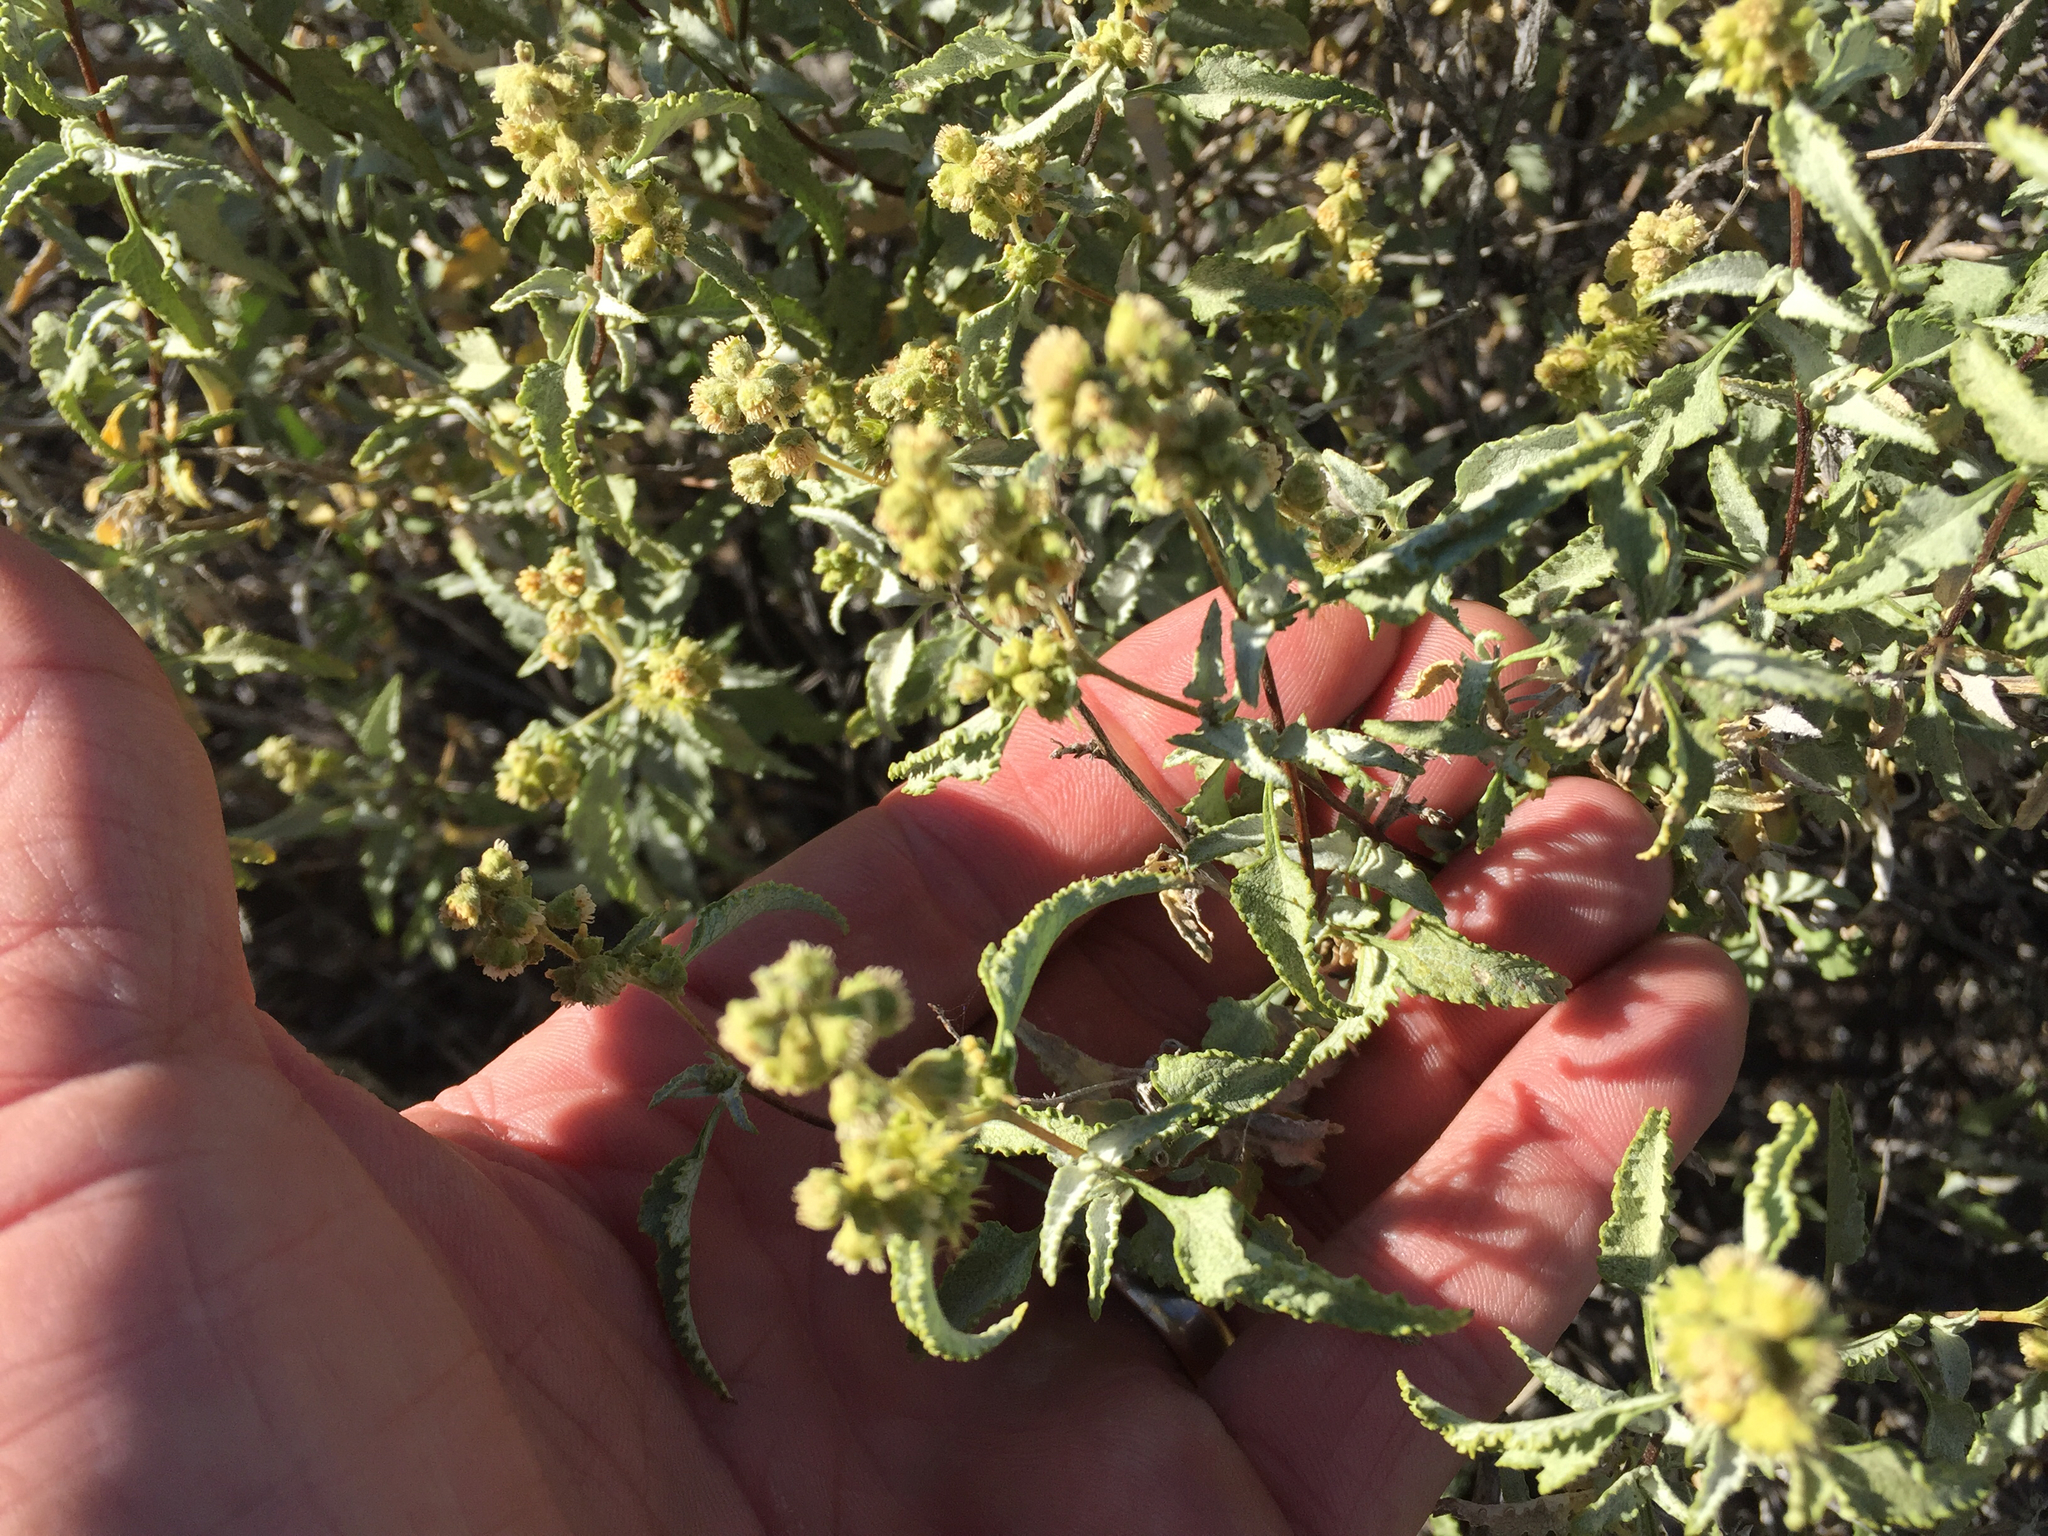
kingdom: Plantae
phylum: Tracheophyta
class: Magnoliopsida
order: Asterales
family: Asteraceae
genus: Ambrosia
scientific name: Ambrosia deltoidea
